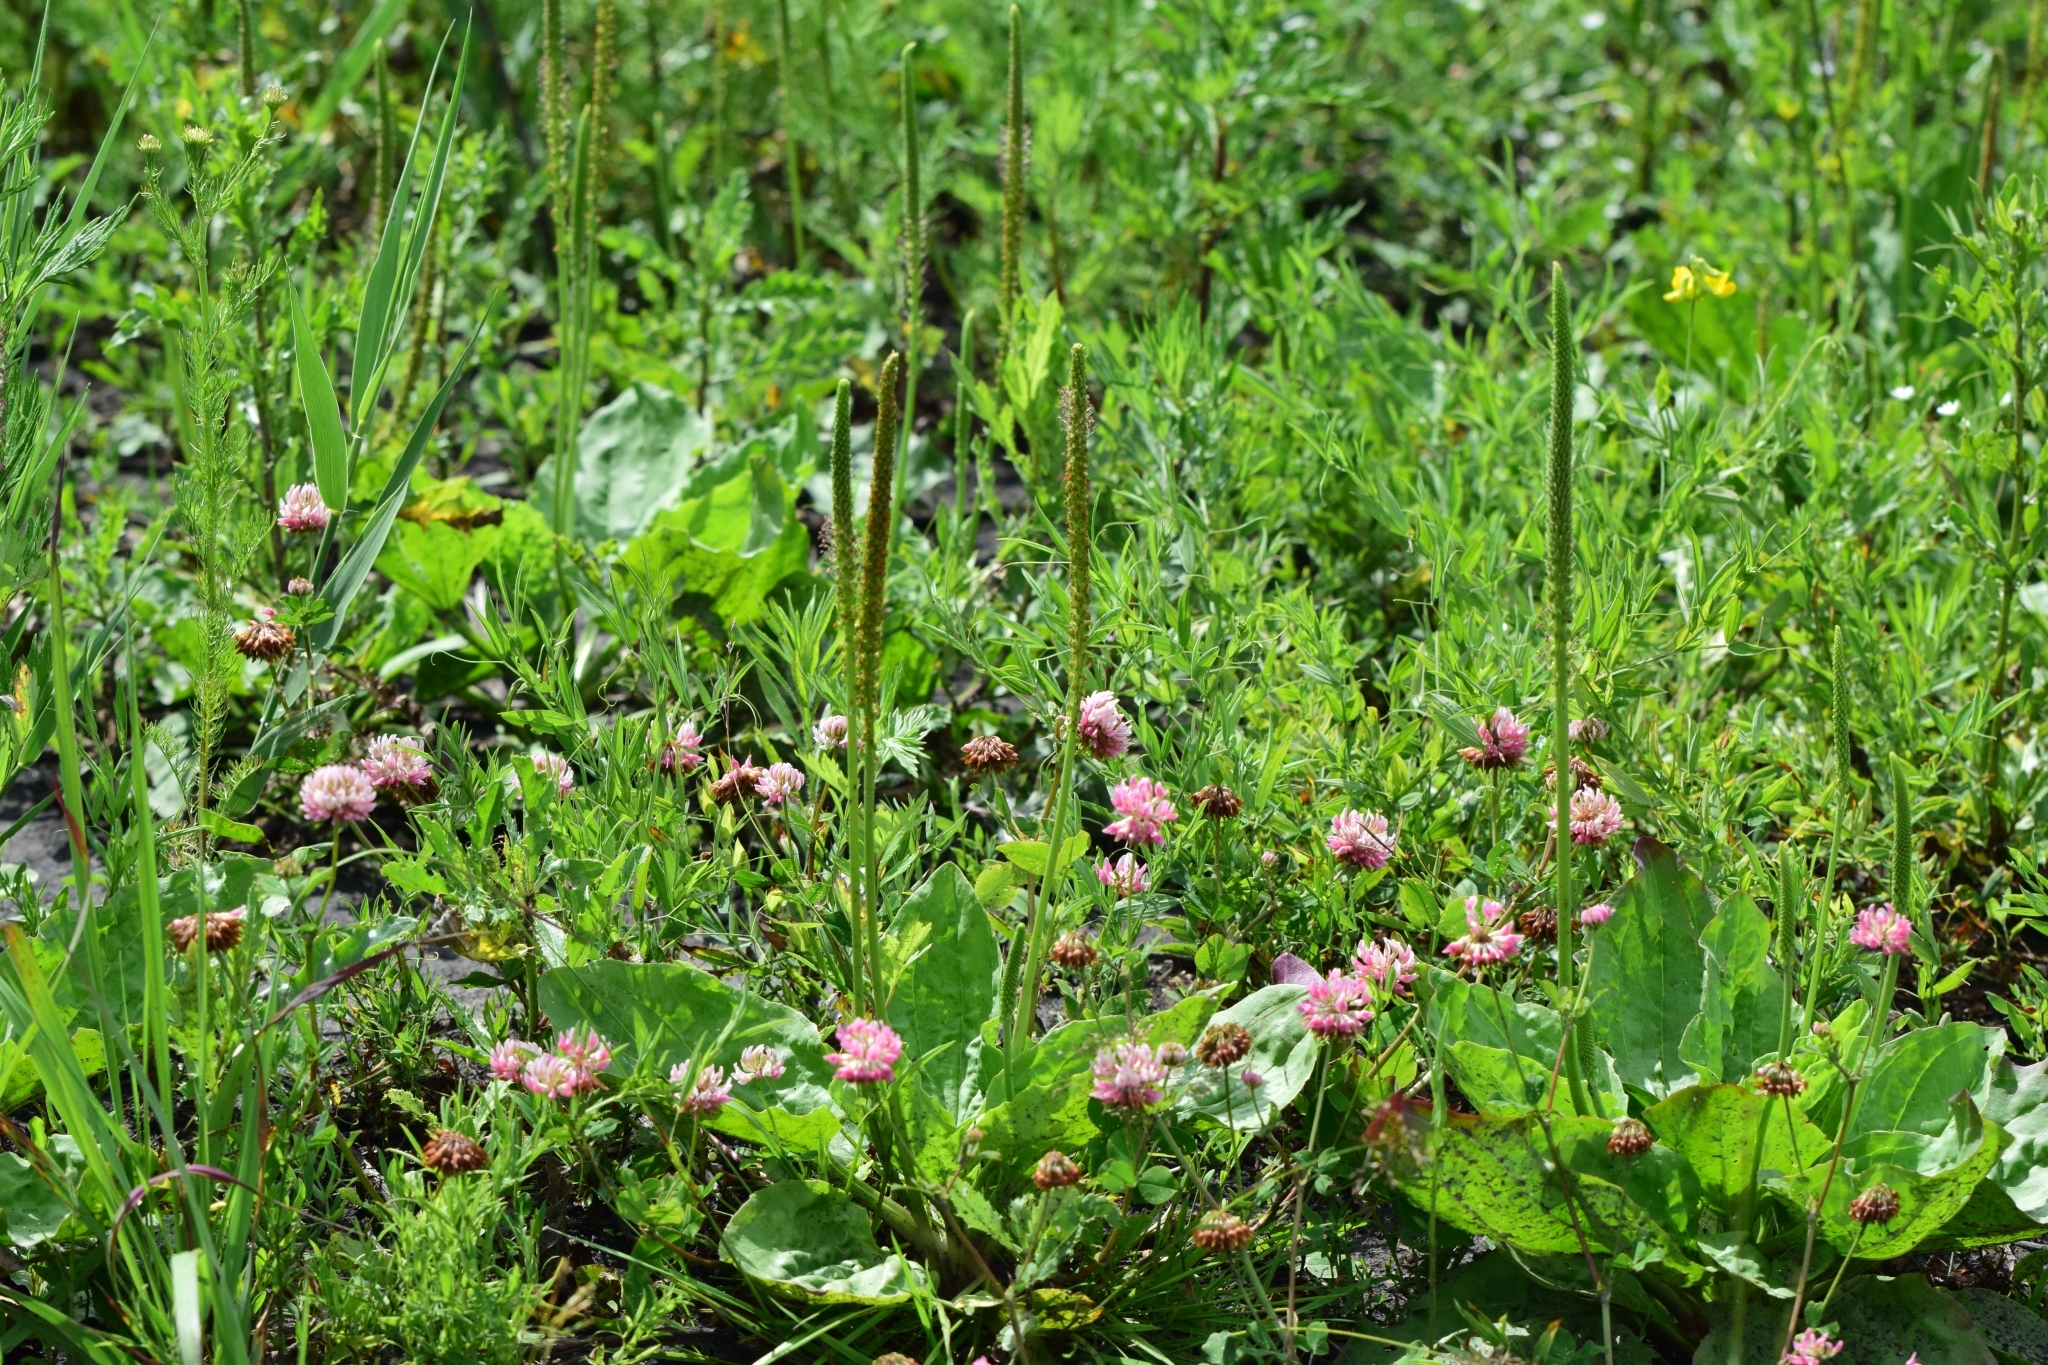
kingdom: Plantae
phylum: Tracheophyta
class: Magnoliopsida
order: Lamiales
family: Plantaginaceae
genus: Plantago
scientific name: Plantago major
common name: Common plantain
